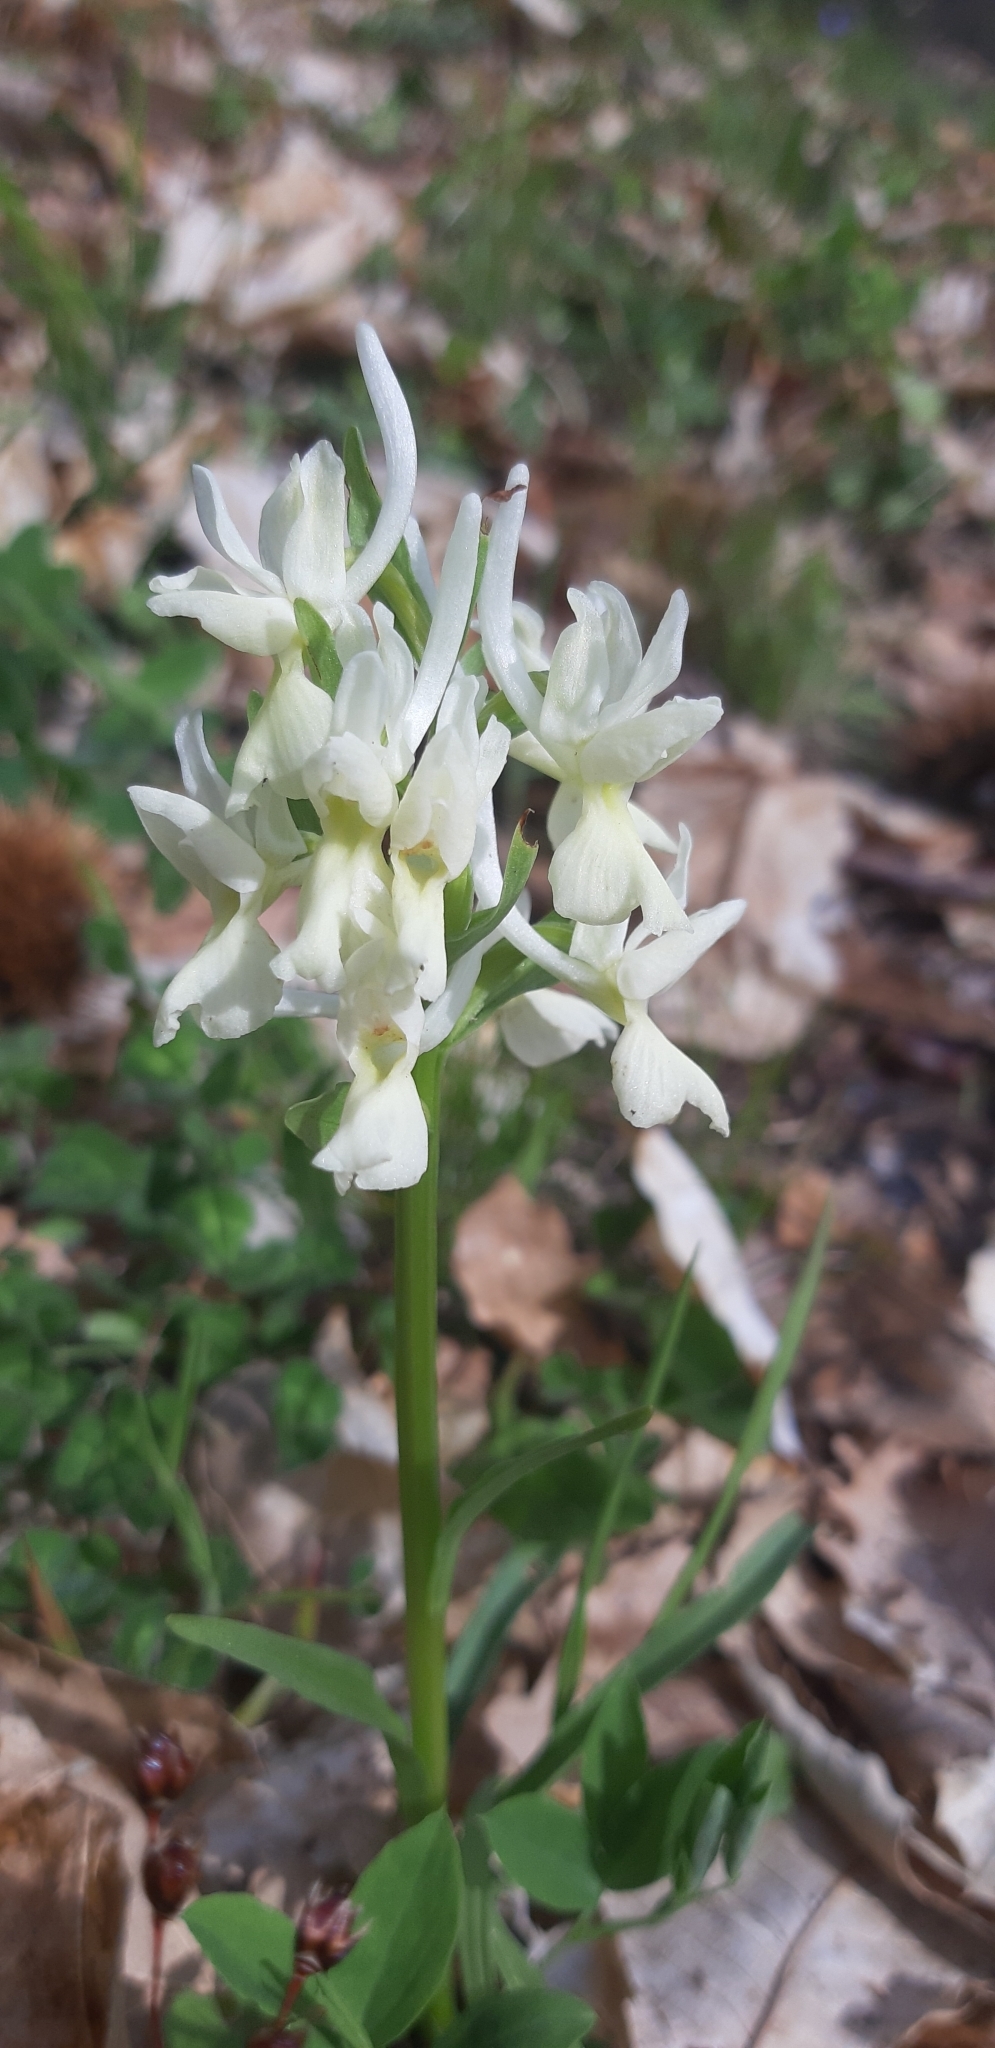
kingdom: Plantae
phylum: Tracheophyta
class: Liliopsida
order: Asparagales
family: Orchidaceae
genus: Dactylorhiza
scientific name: Dactylorhiza romana
